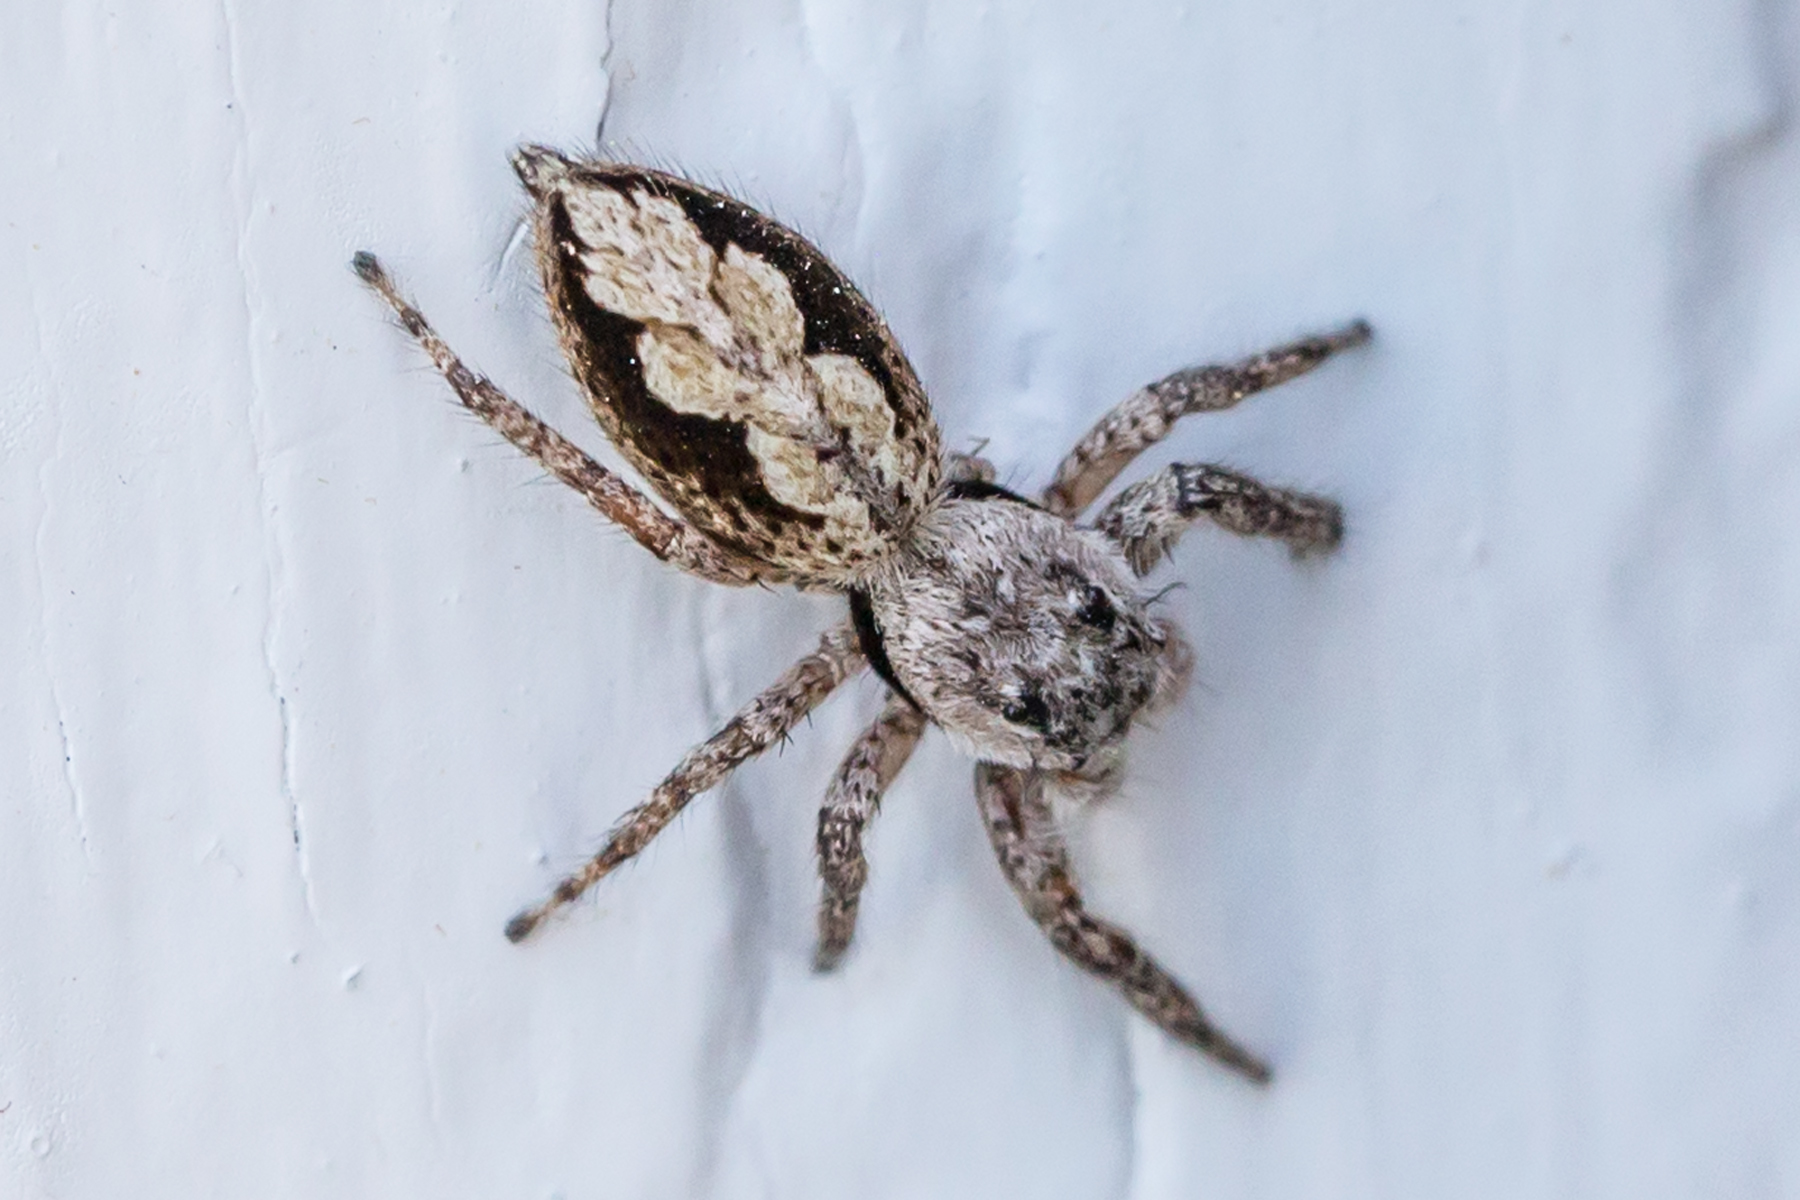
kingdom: Animalia
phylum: Arthropoda
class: Arachnida
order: Araneae
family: Salticidae
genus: Platycryptus
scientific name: Platycryptus undatus
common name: Tan jumping spider
